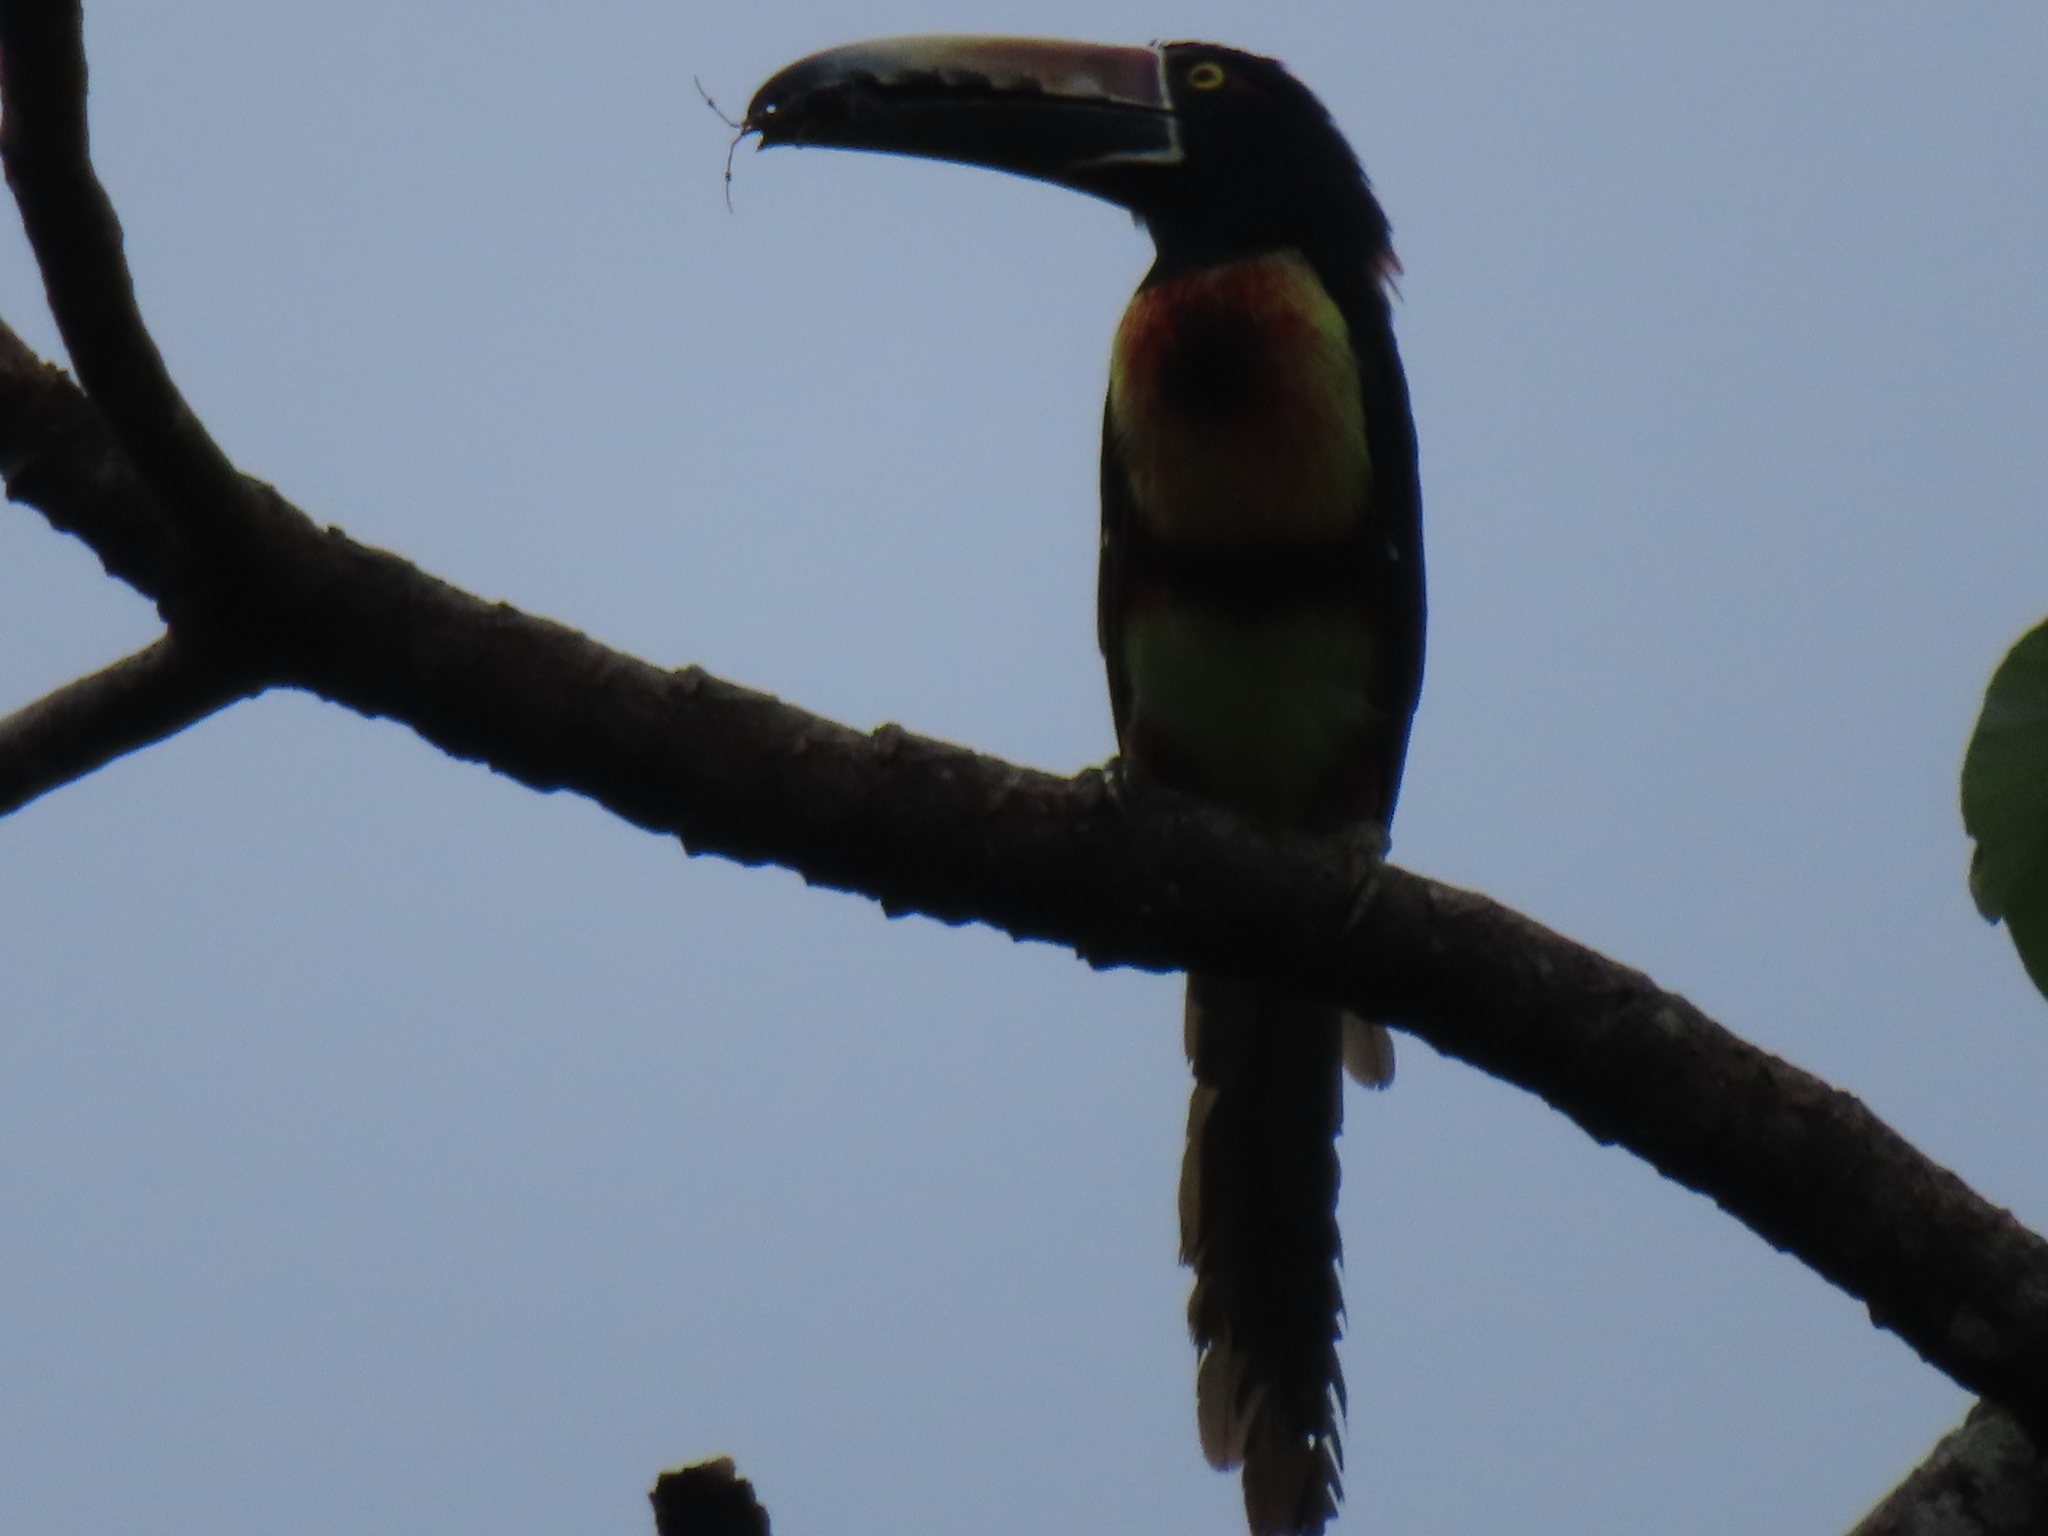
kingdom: Animalia
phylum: Chordata
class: Aves
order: Piciformes
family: Ramphastidae
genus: Pteroglossus
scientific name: Pteroglossus torquatus
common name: Collared aracari
